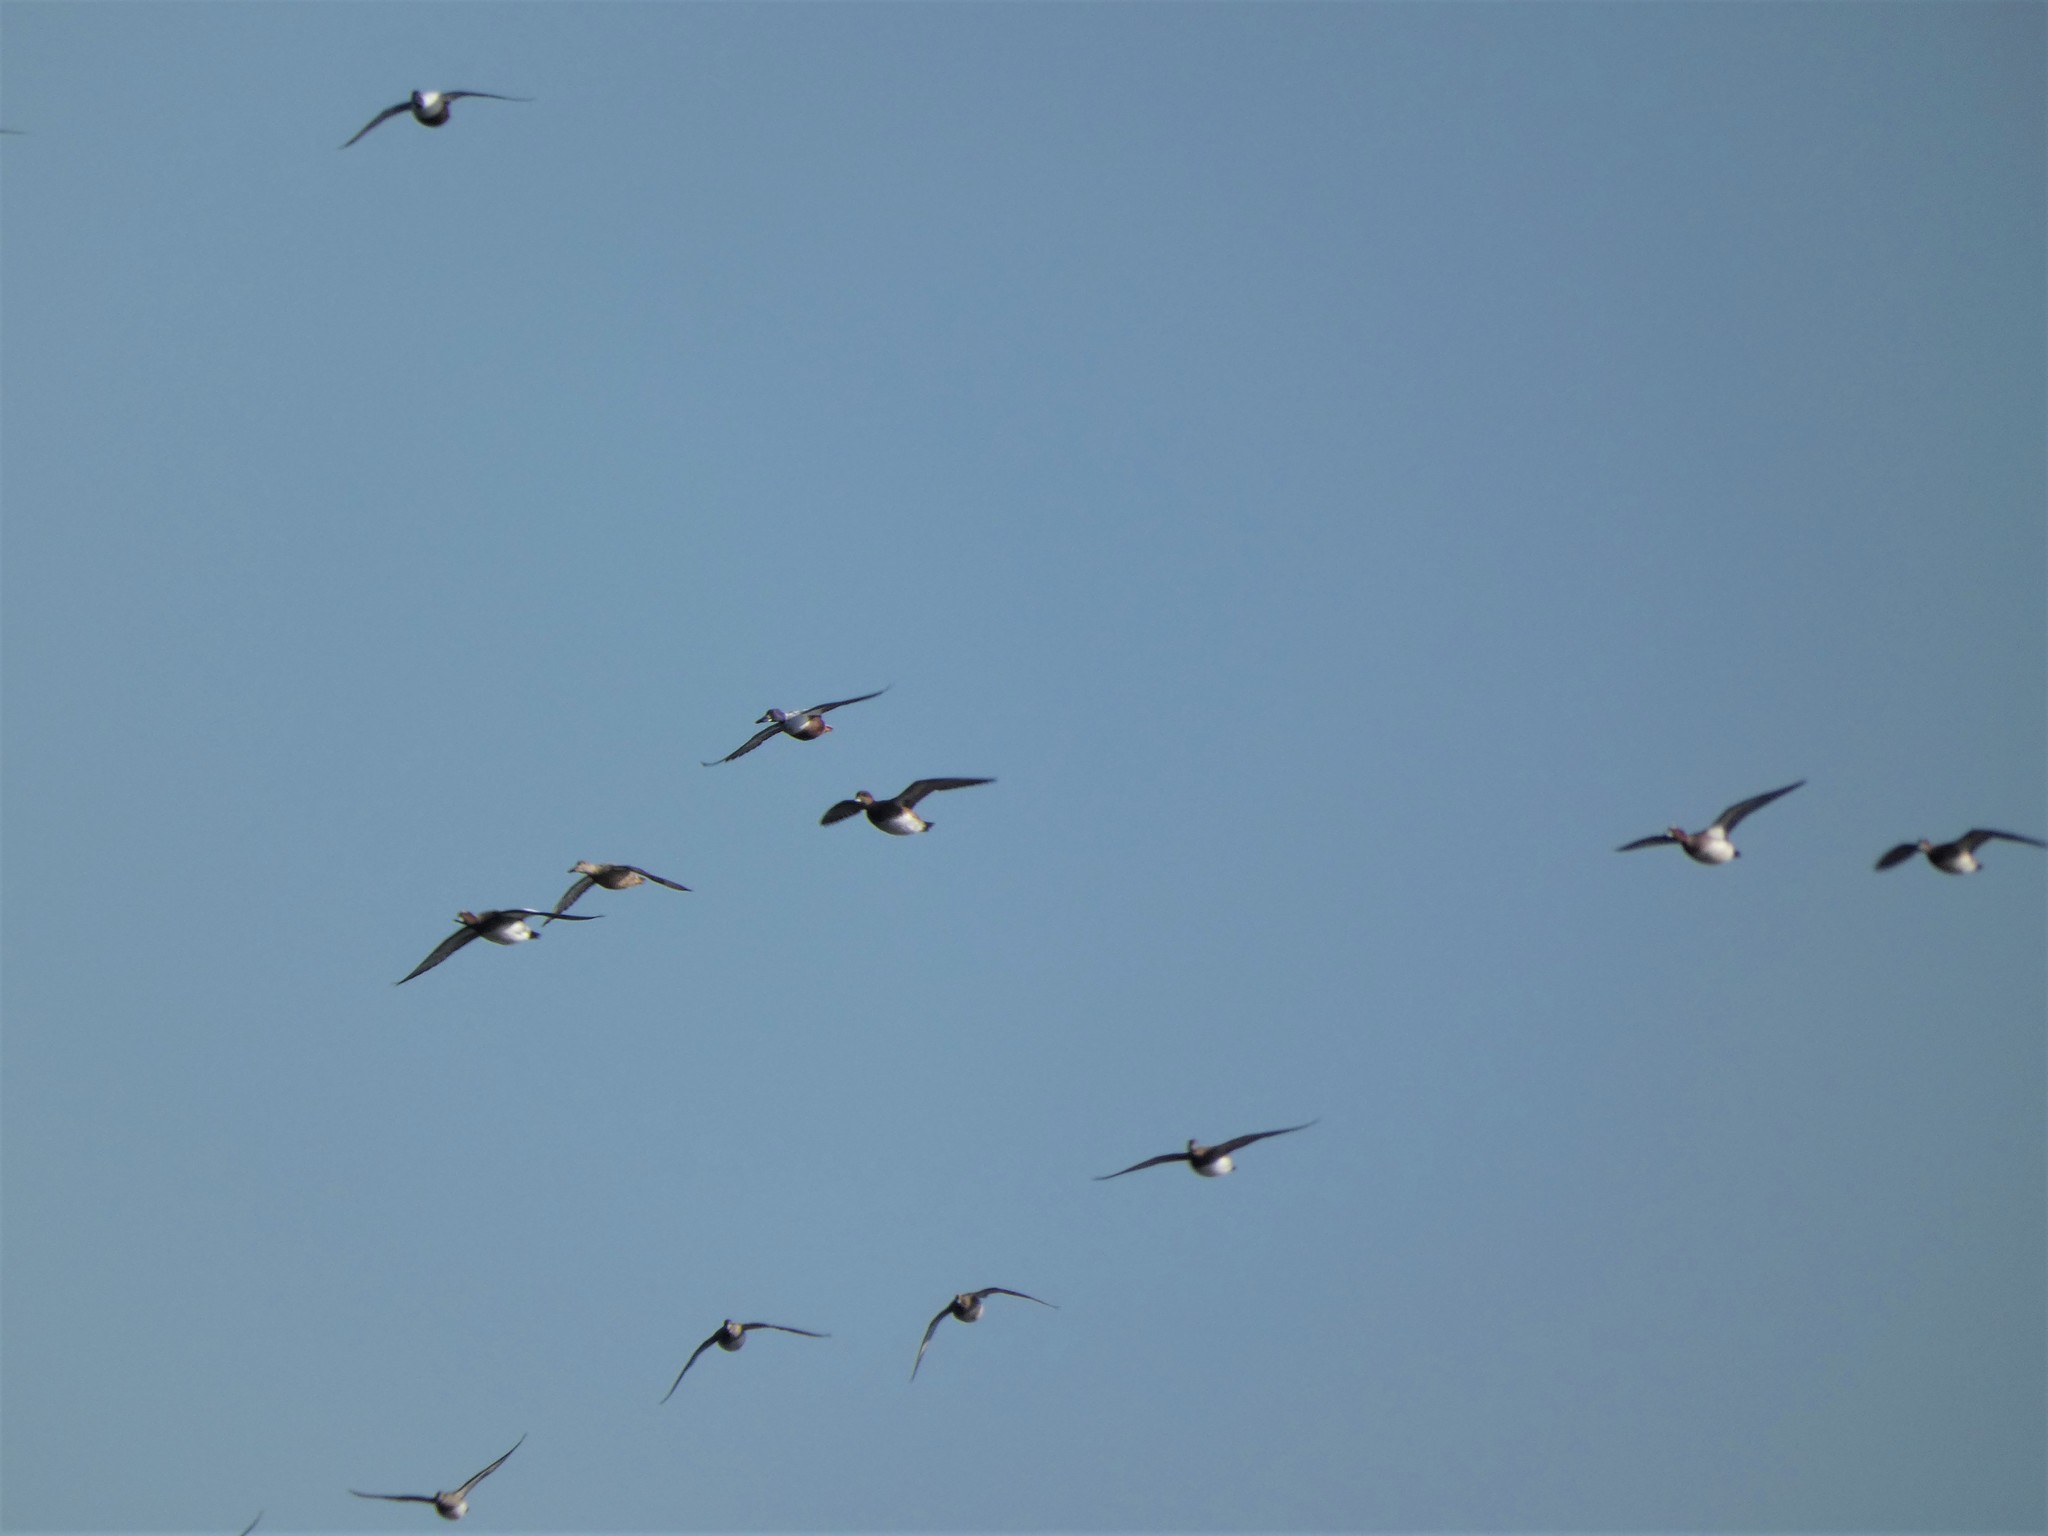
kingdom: Animalia
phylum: Chordata
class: Aves
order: Anseriformes
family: Anatidae
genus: Spatula
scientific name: Spatula clypeata
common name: Northern shoveler
